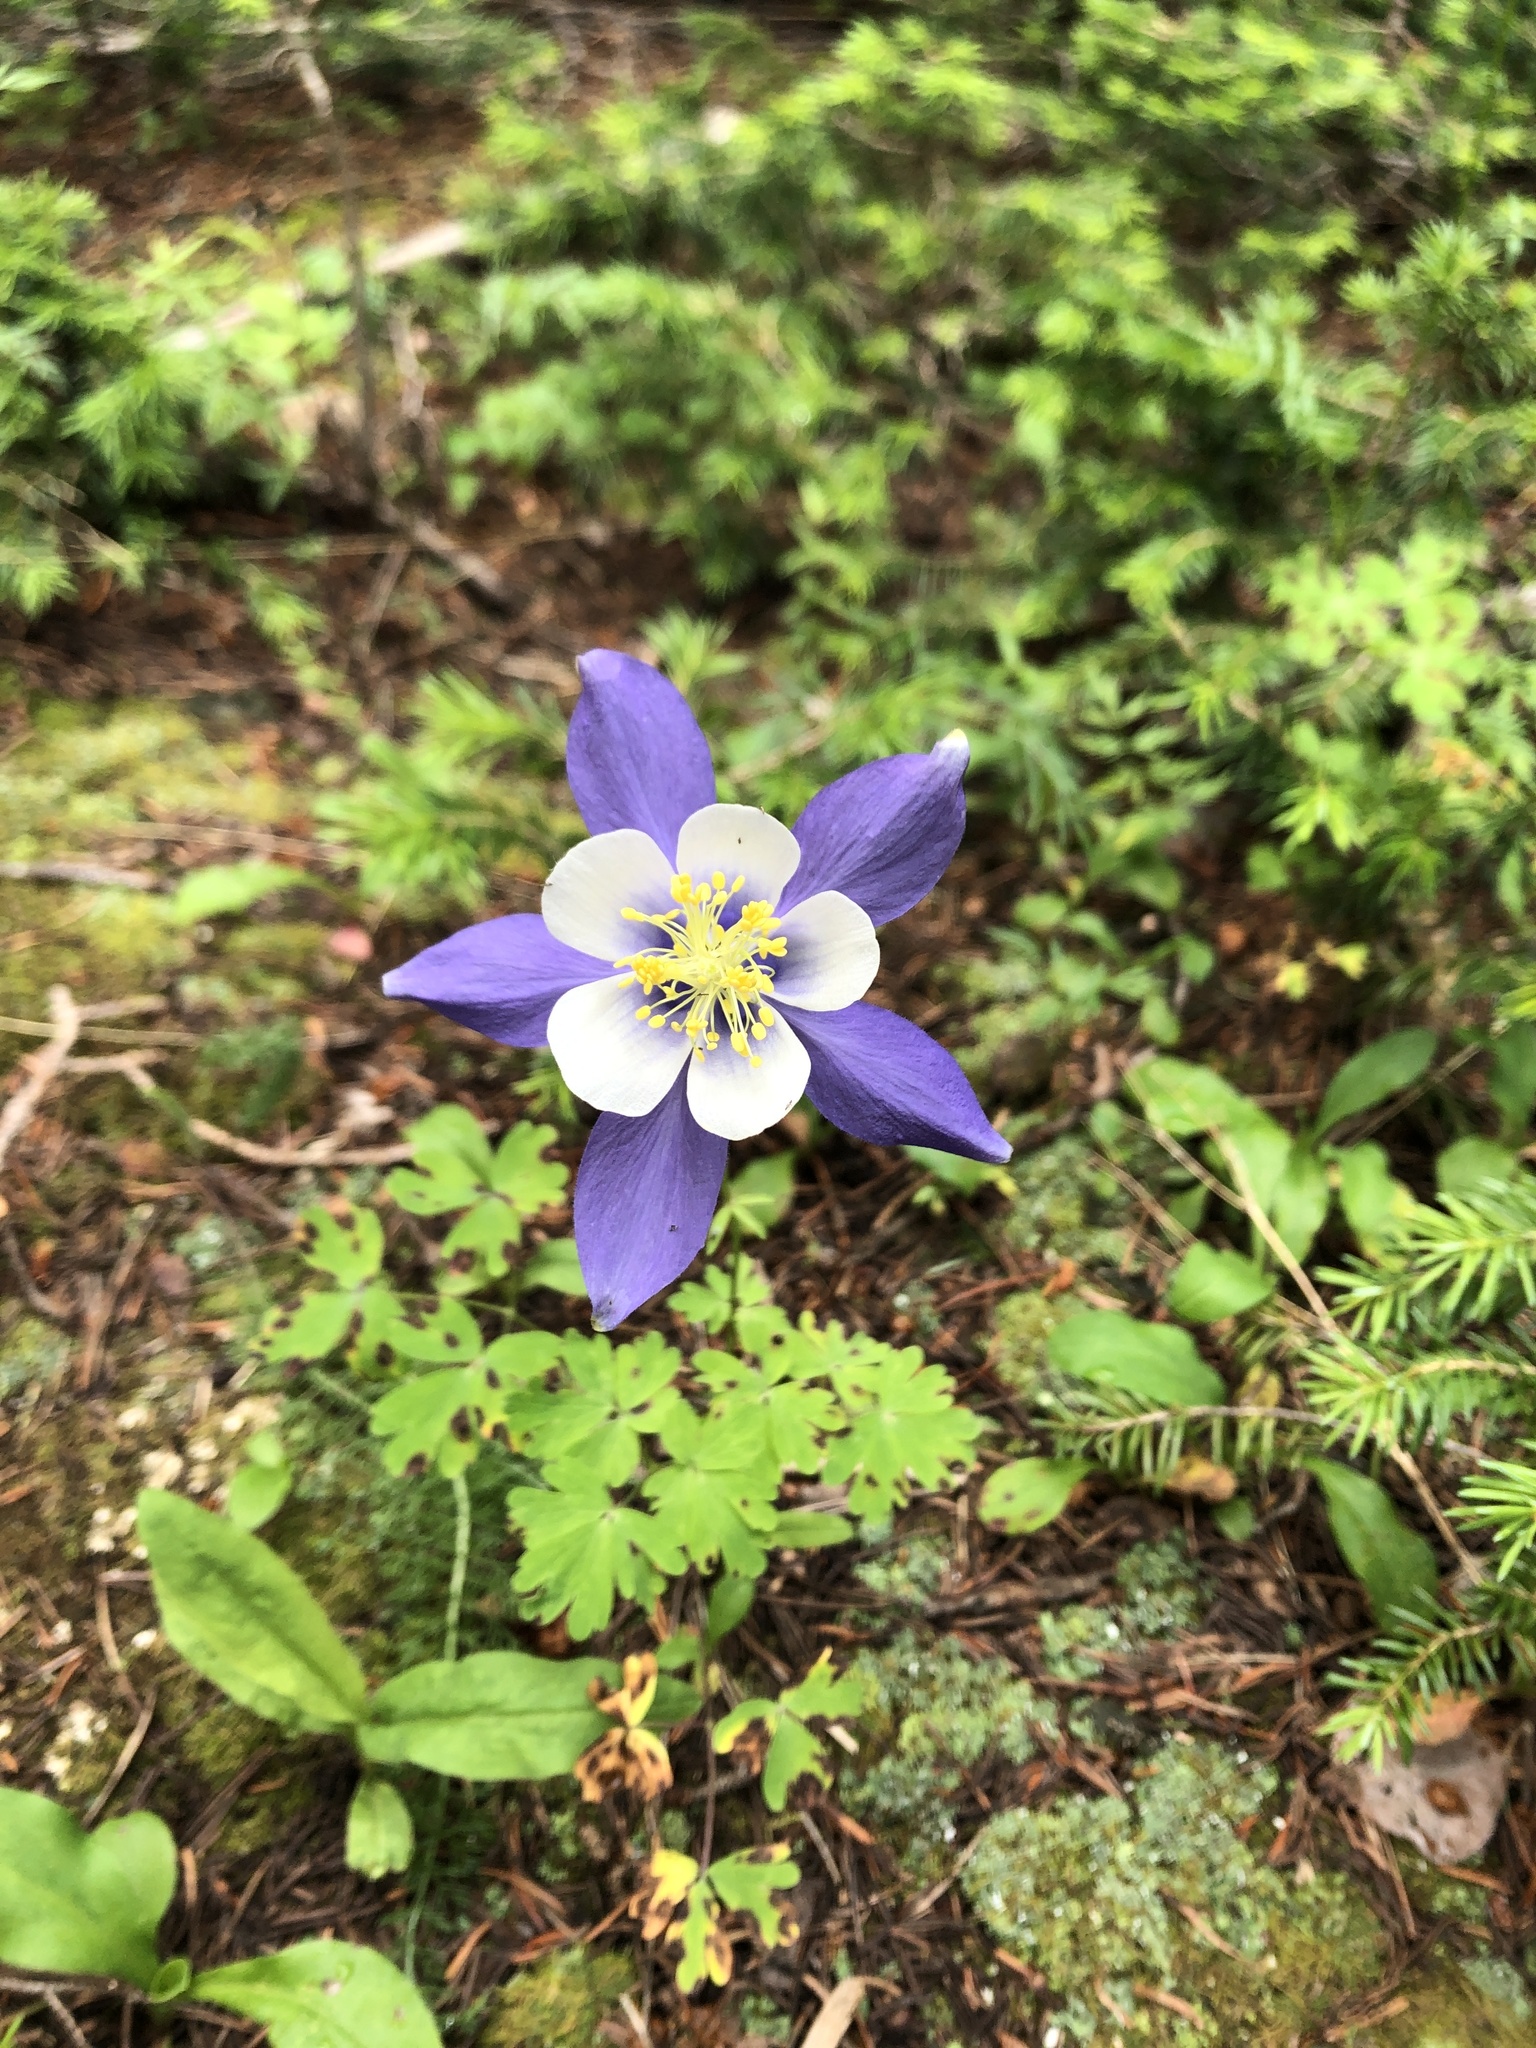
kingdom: Plantae
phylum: Tracheophyta
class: Magnoliopsida
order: Ranunculales
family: Ranunculaceae
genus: Aquilegia
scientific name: Aquilegia coerulea
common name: Rocky mountain columbine
